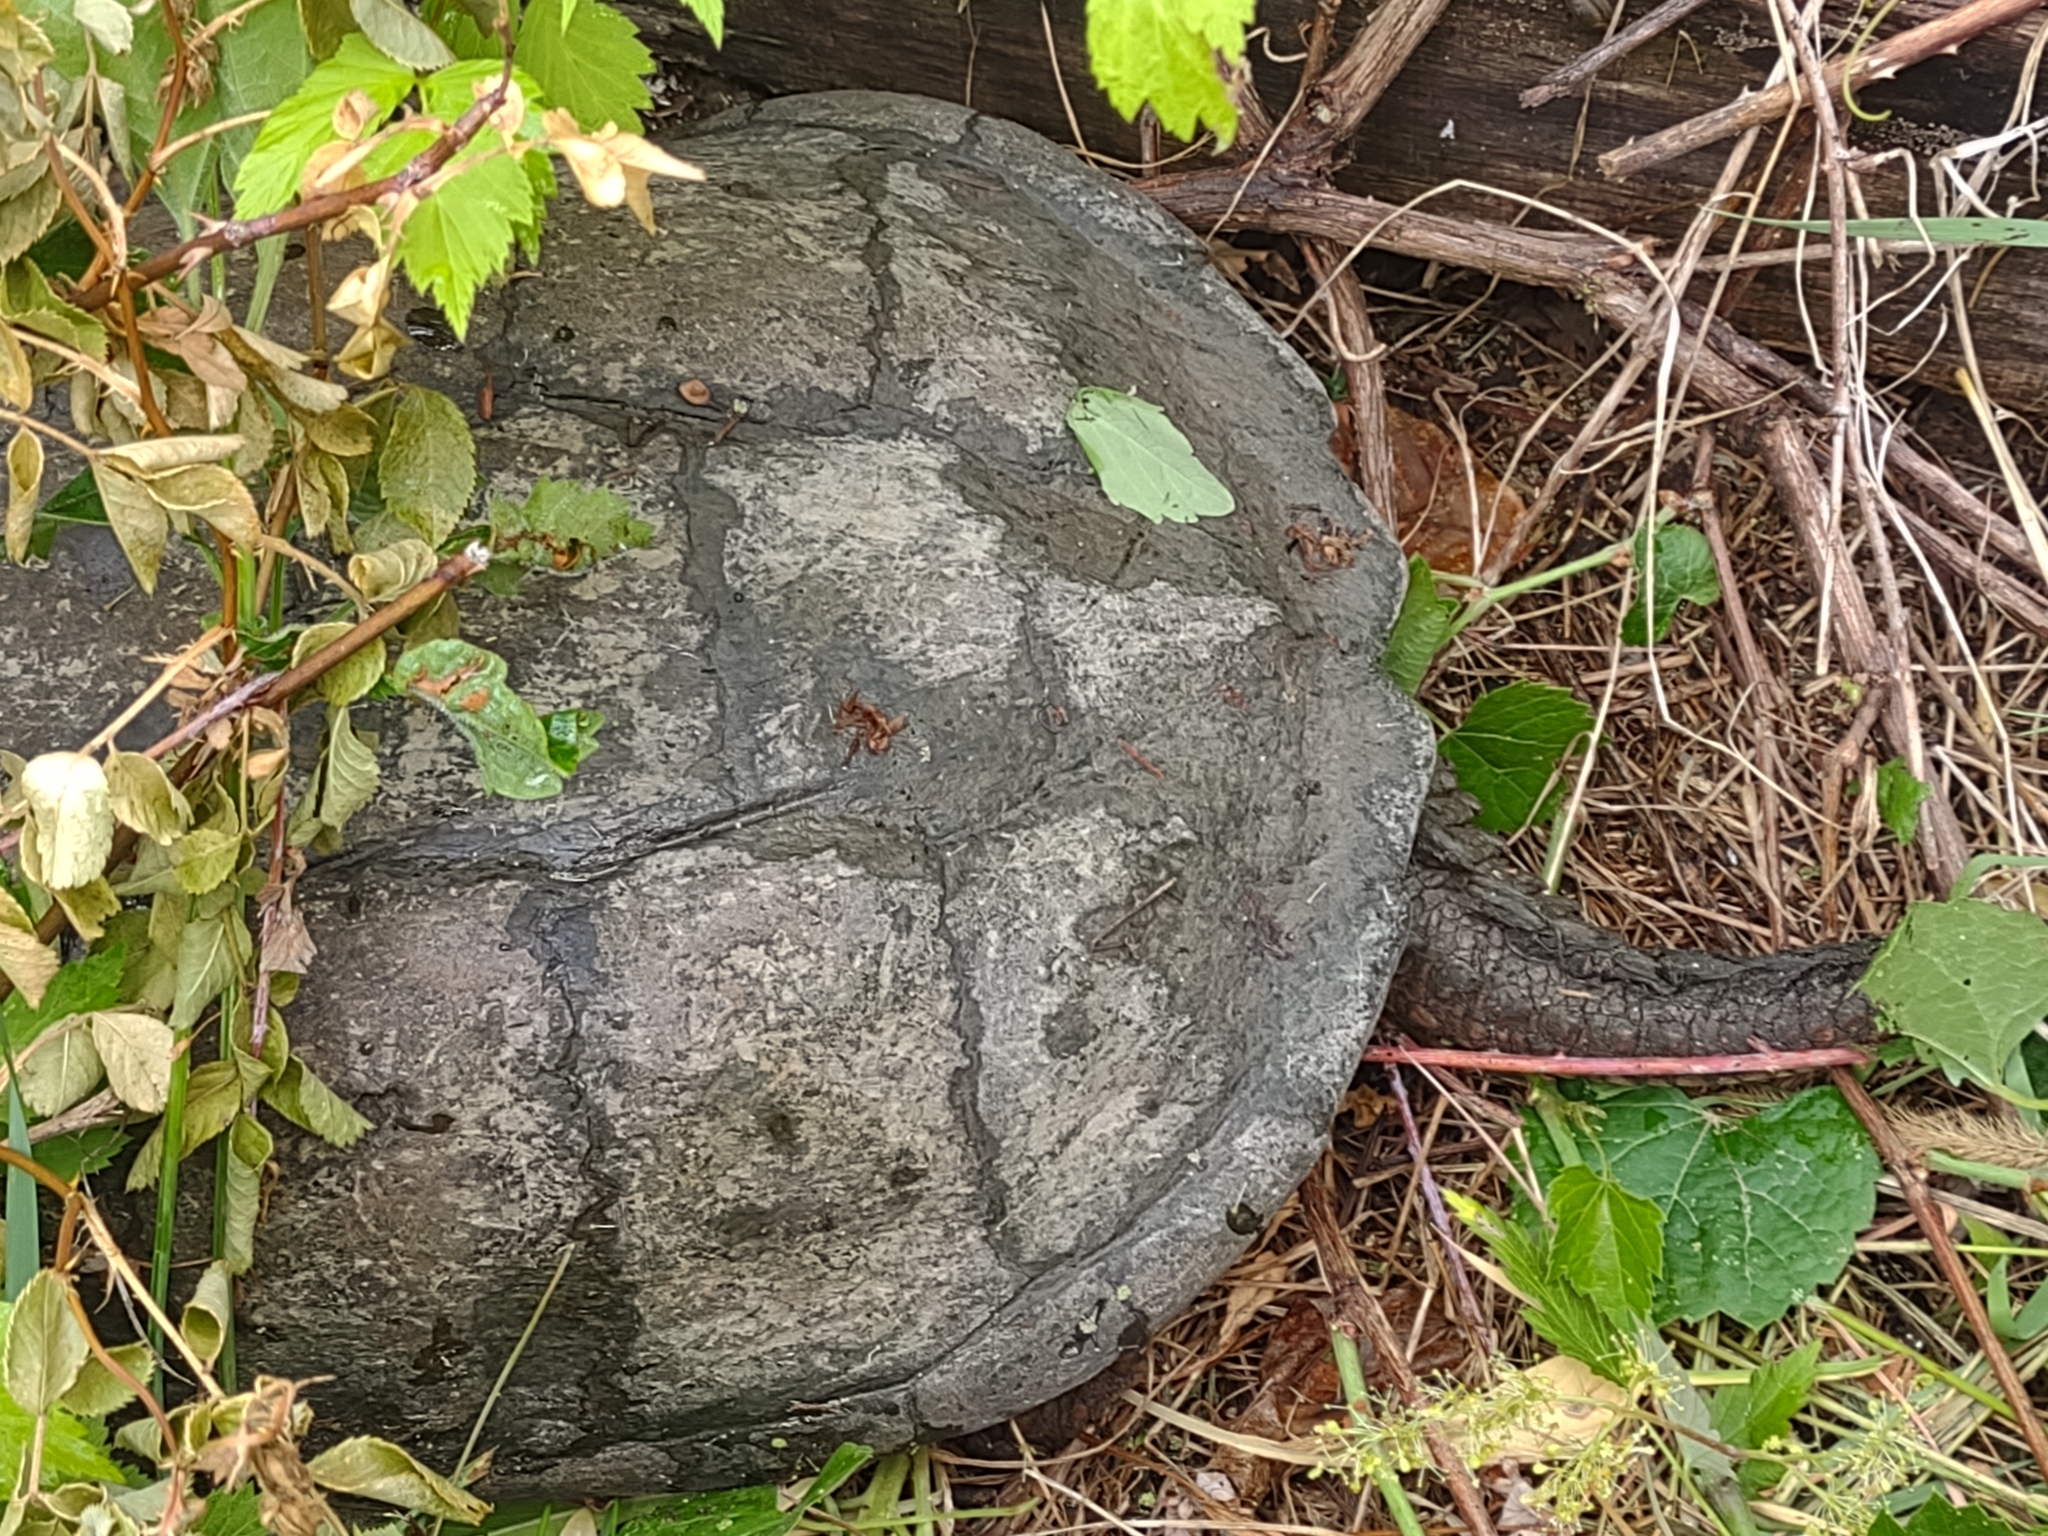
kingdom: Animalia
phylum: Chordata
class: Testudines
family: Chelydridae
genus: Chelydra
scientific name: Chelydra serpentina
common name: Common snapping turtle
